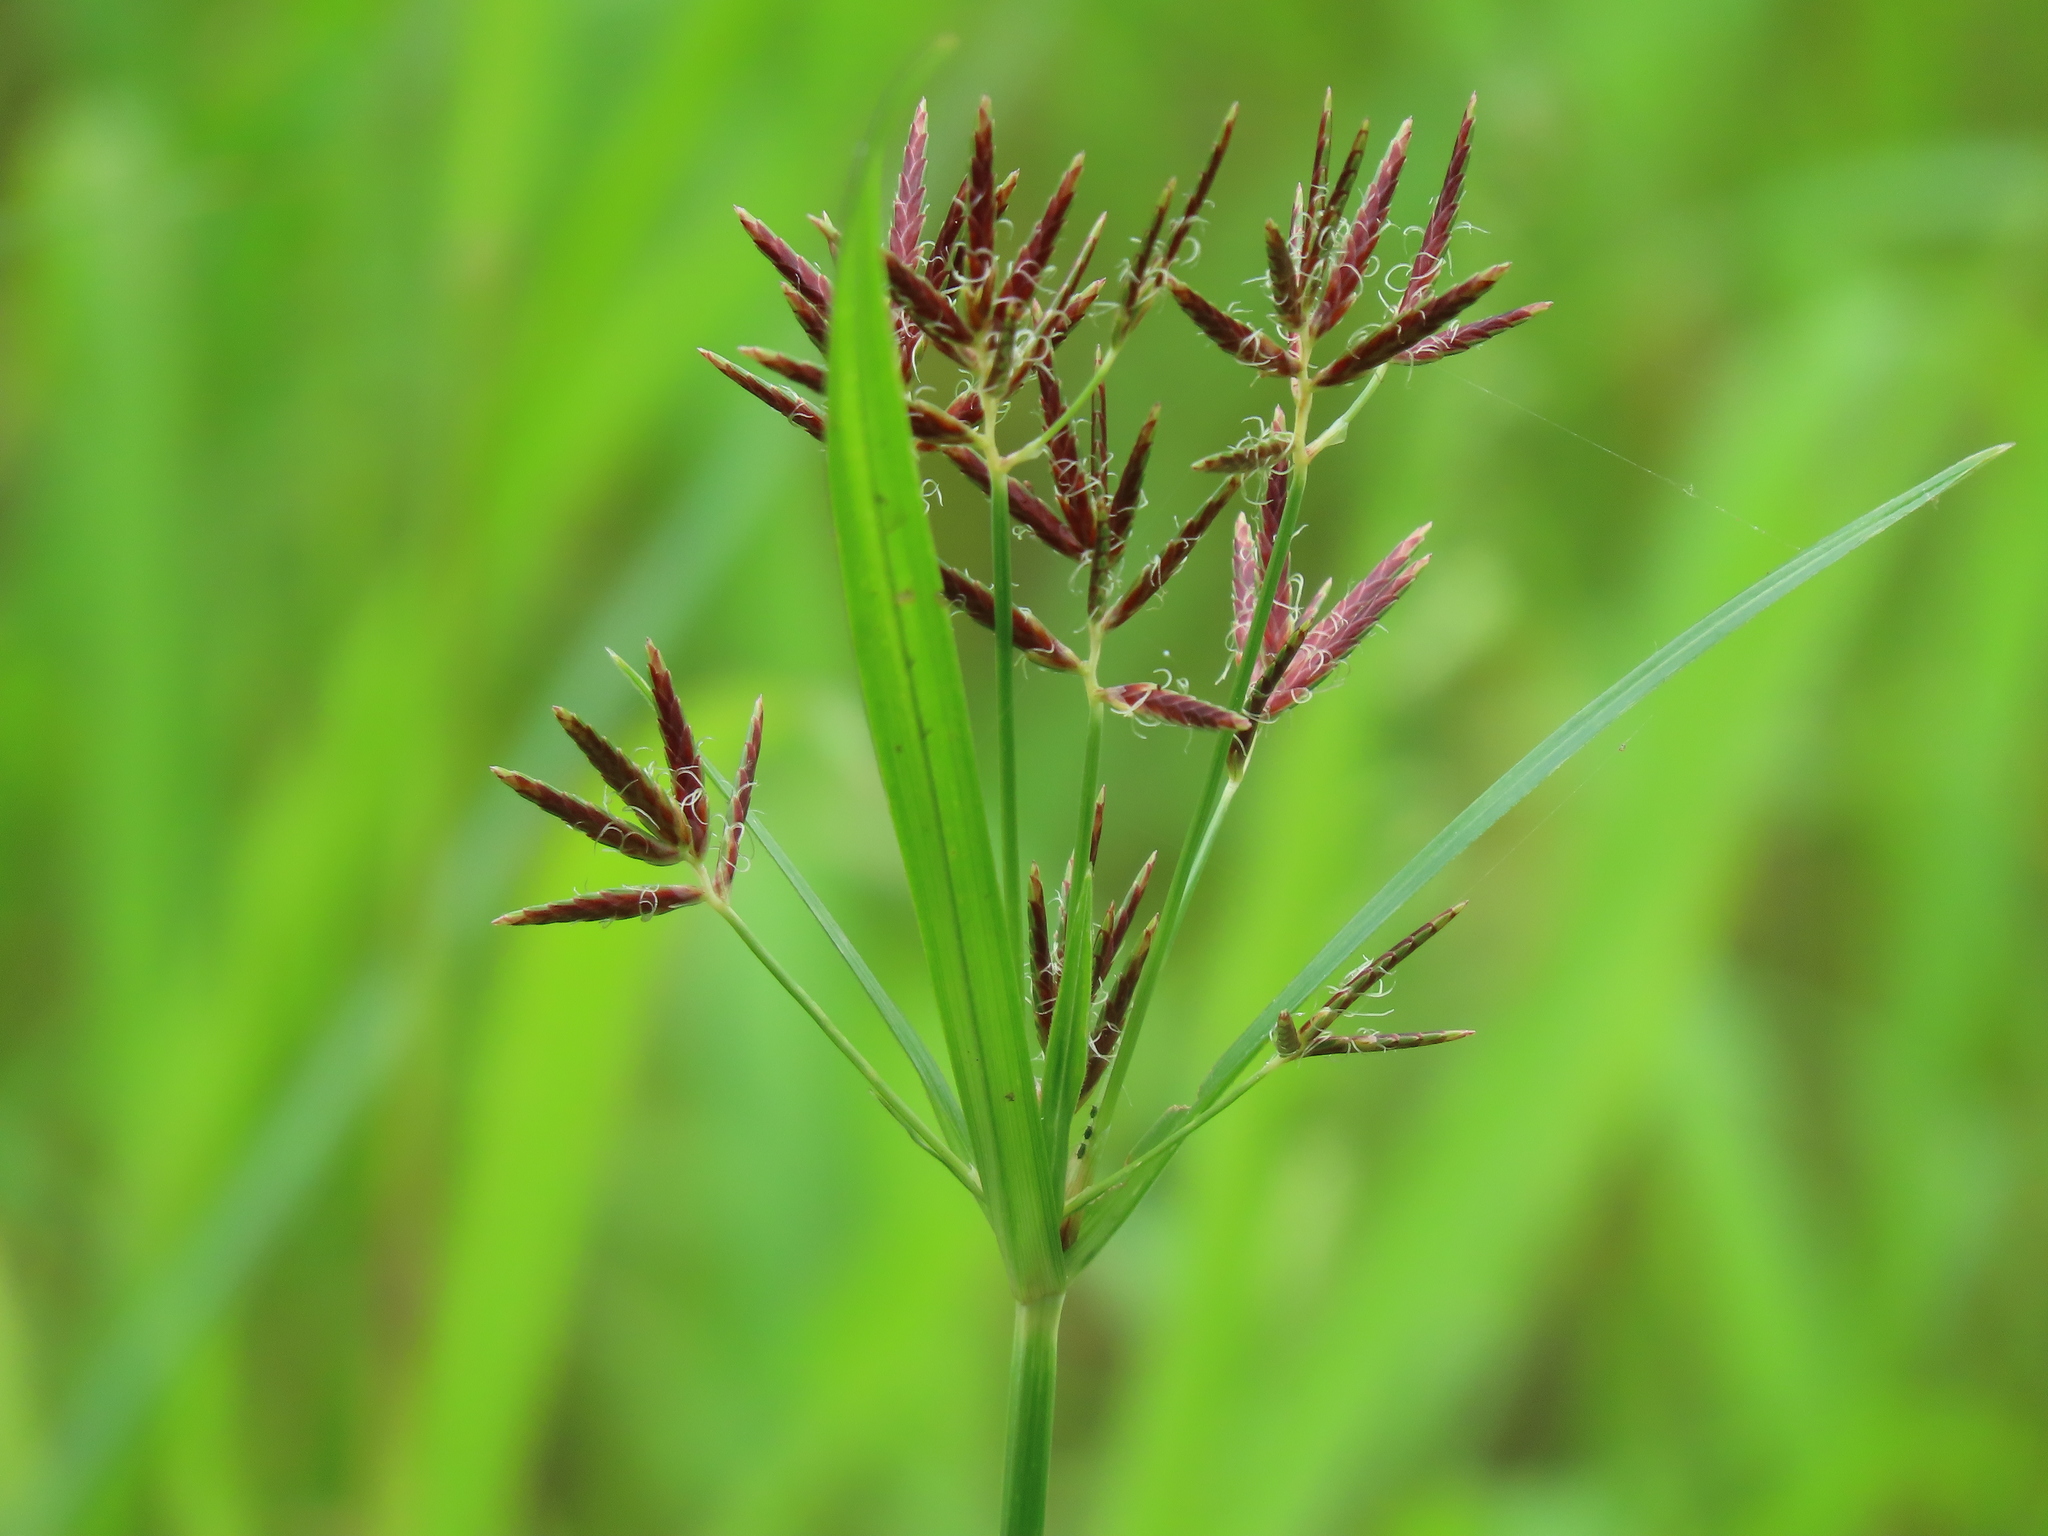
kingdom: Plantae
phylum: Tracheophyta
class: Liliopsida
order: Poales
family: Cyperaceae
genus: Cyperus
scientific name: Cyperus rotundus
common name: Nutgrass
